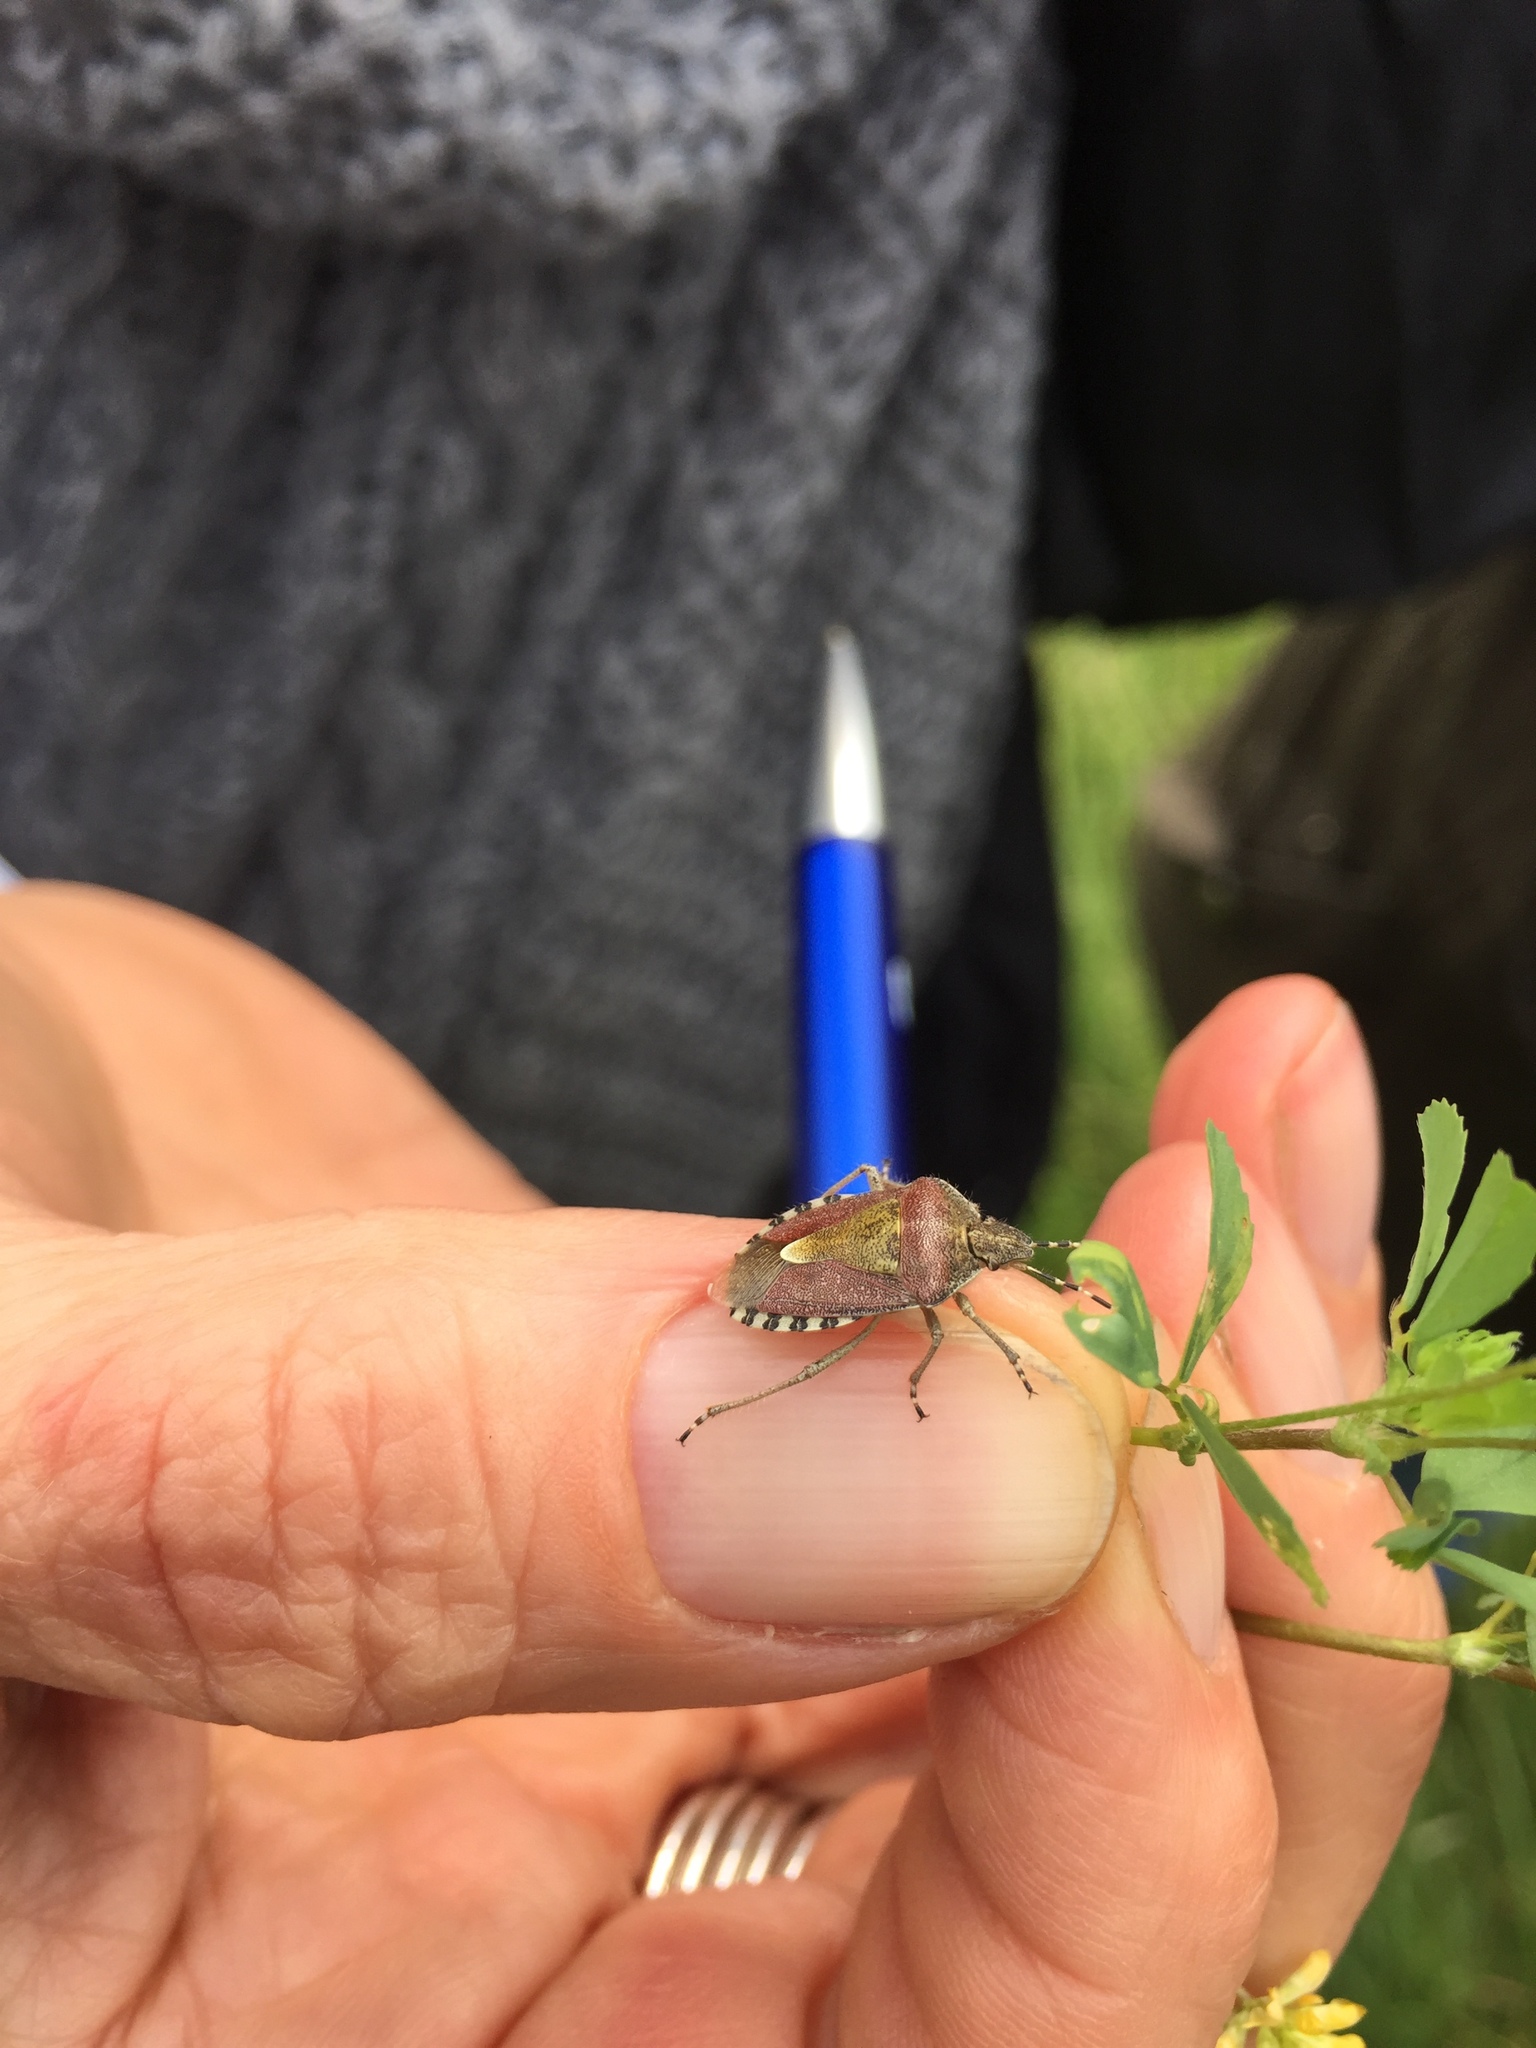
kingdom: Animalia
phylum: Arthropoda
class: Insecta
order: Hemiptera
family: Pentatomidae
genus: Dolycoris
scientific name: Dolycoris baccarum
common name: Sloe bug
